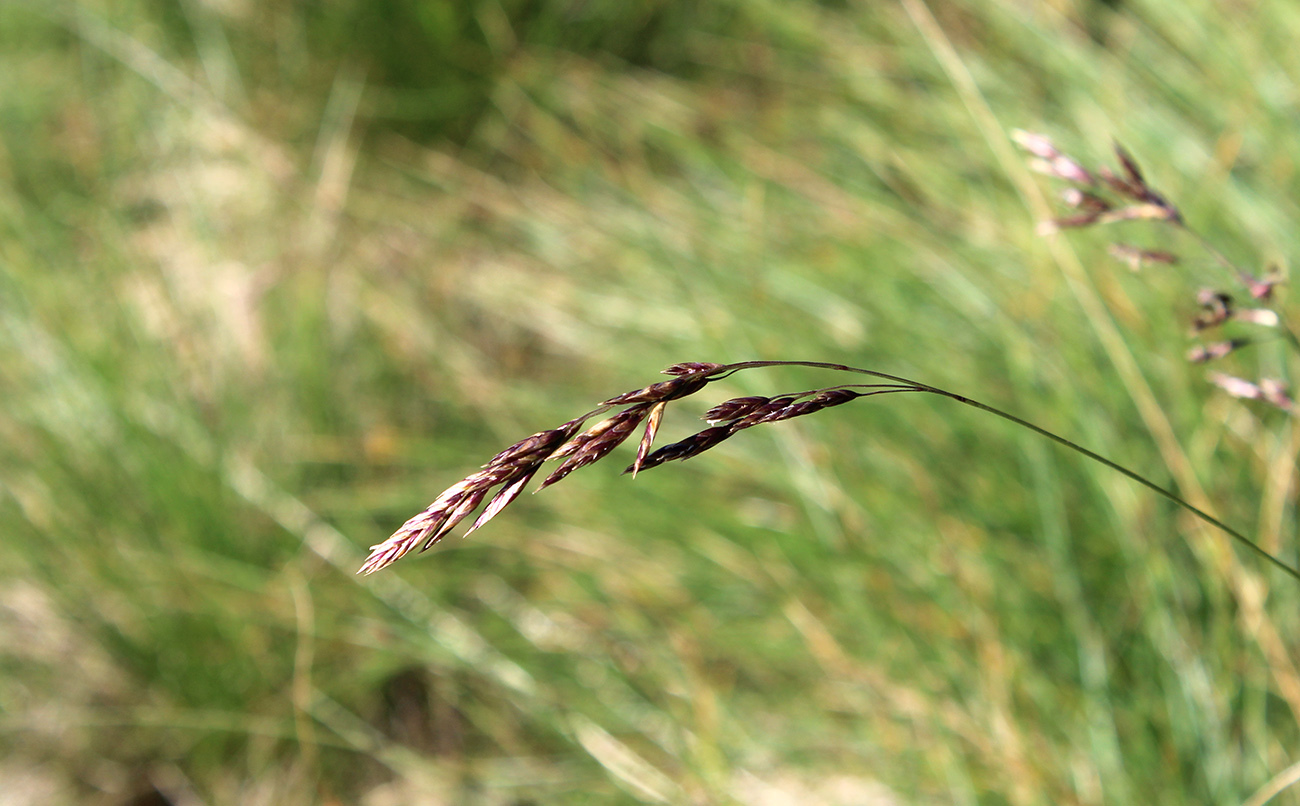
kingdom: Plantae
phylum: Tracheophyta
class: Liliopsida
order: Poales
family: Poaceae
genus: Festuca
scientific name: Festuca varia
